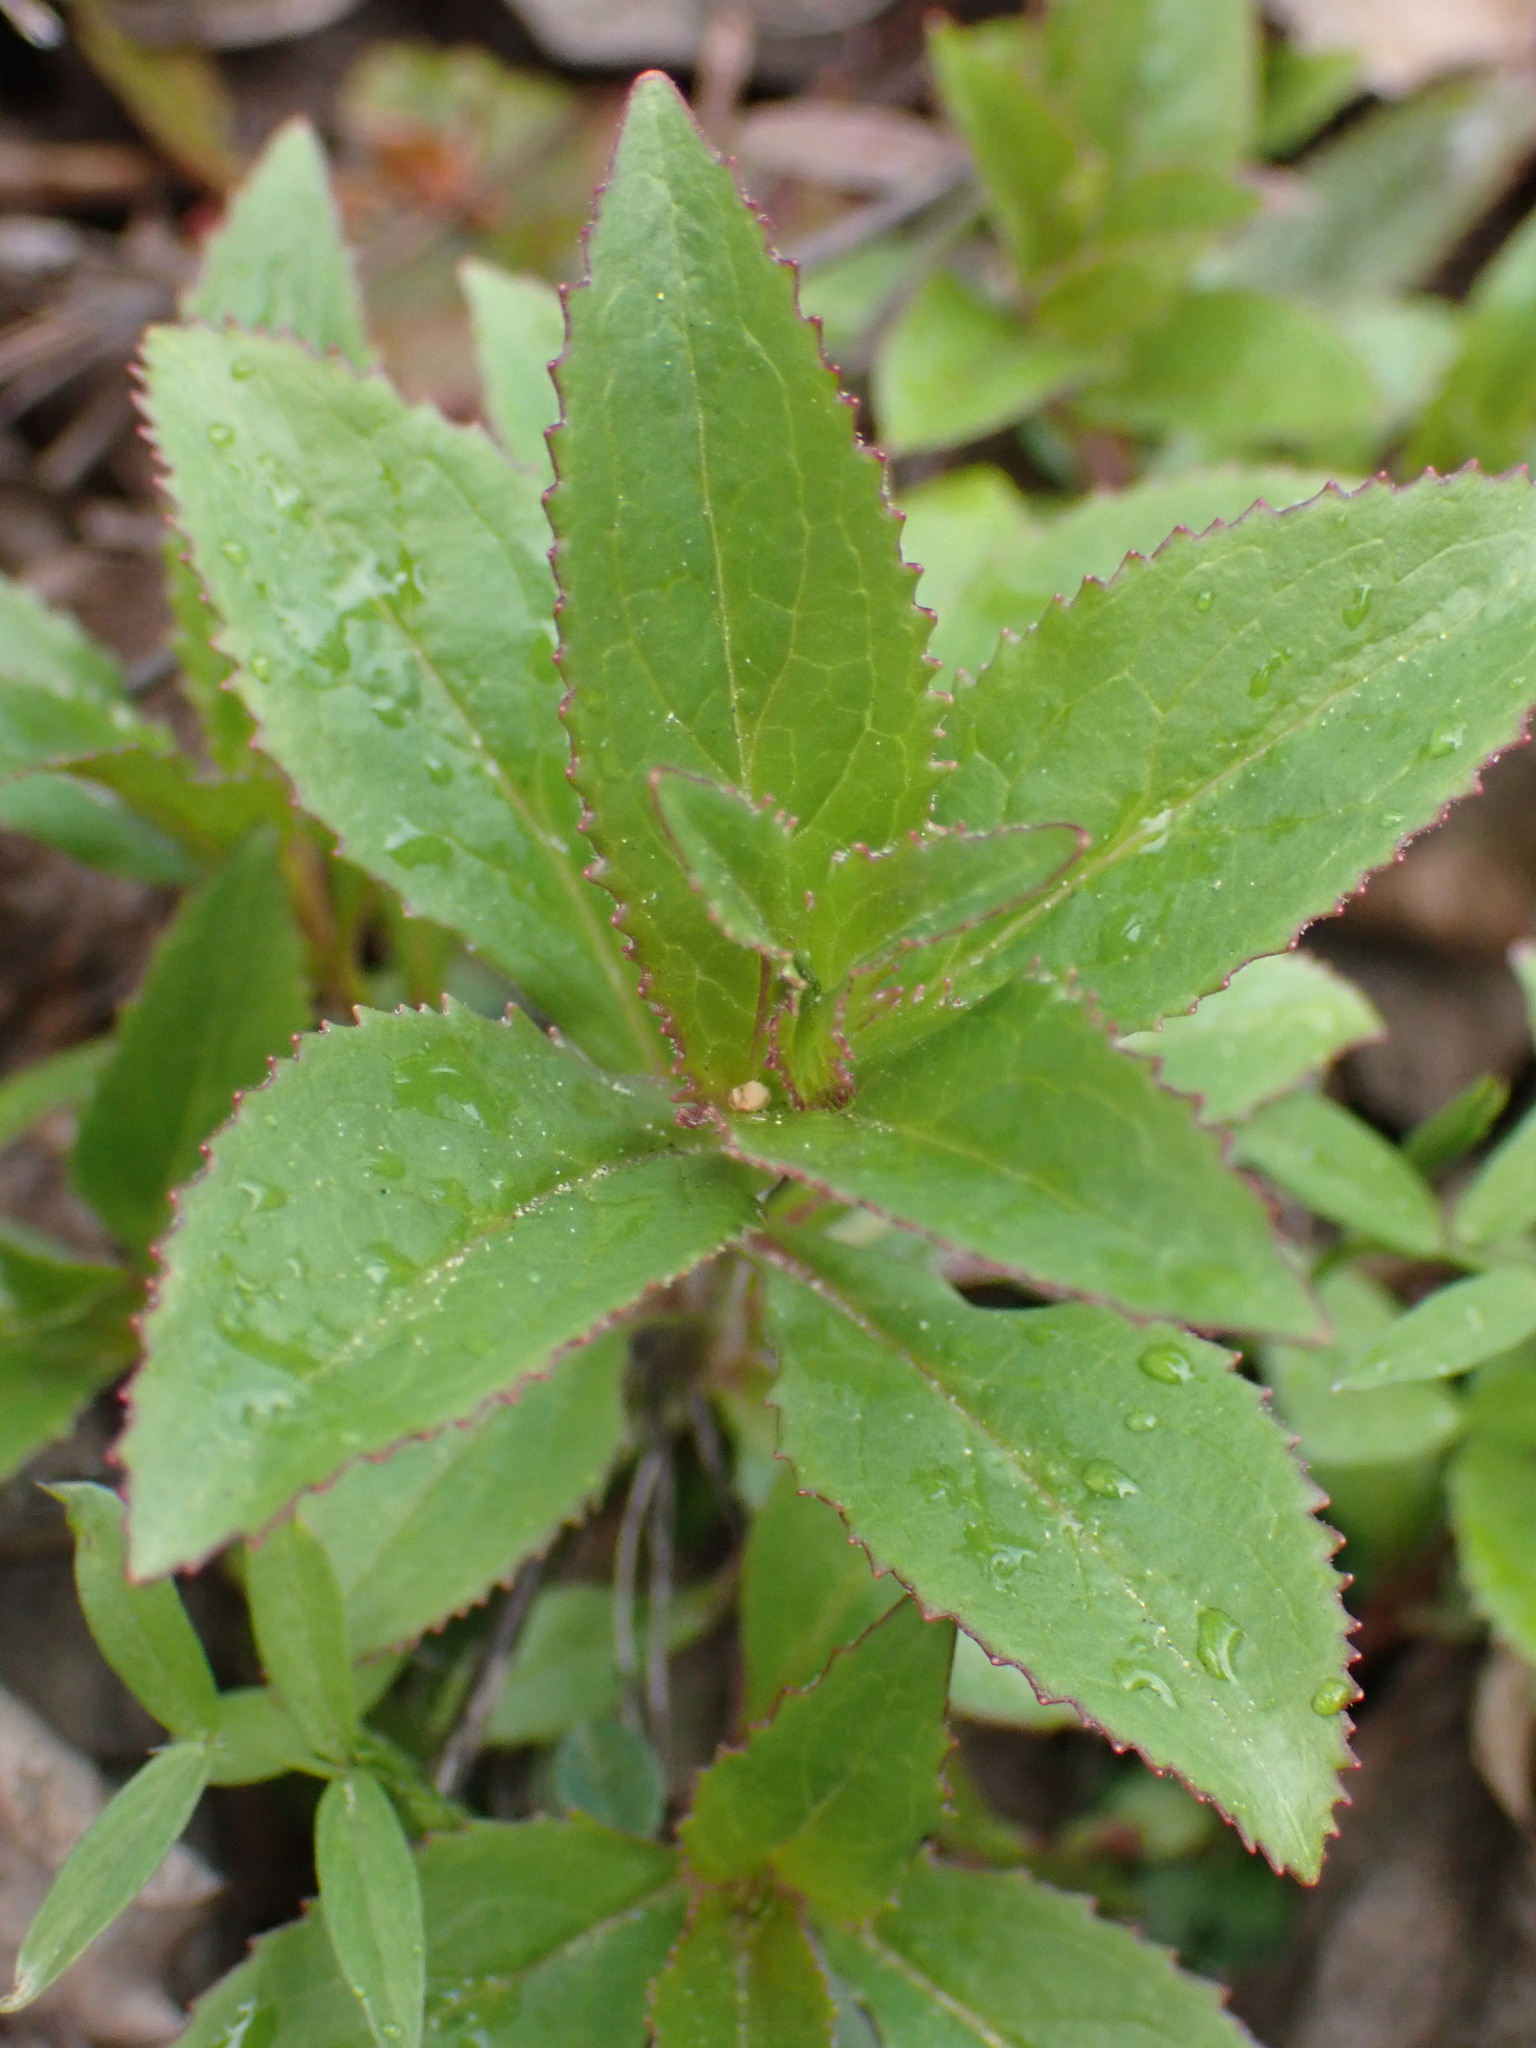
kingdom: Plantae
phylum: Tracheophyta
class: Magnoliopsida
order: Lamiales
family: Plantaginaceae
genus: Penstemon
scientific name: Penstemon serrulatus
